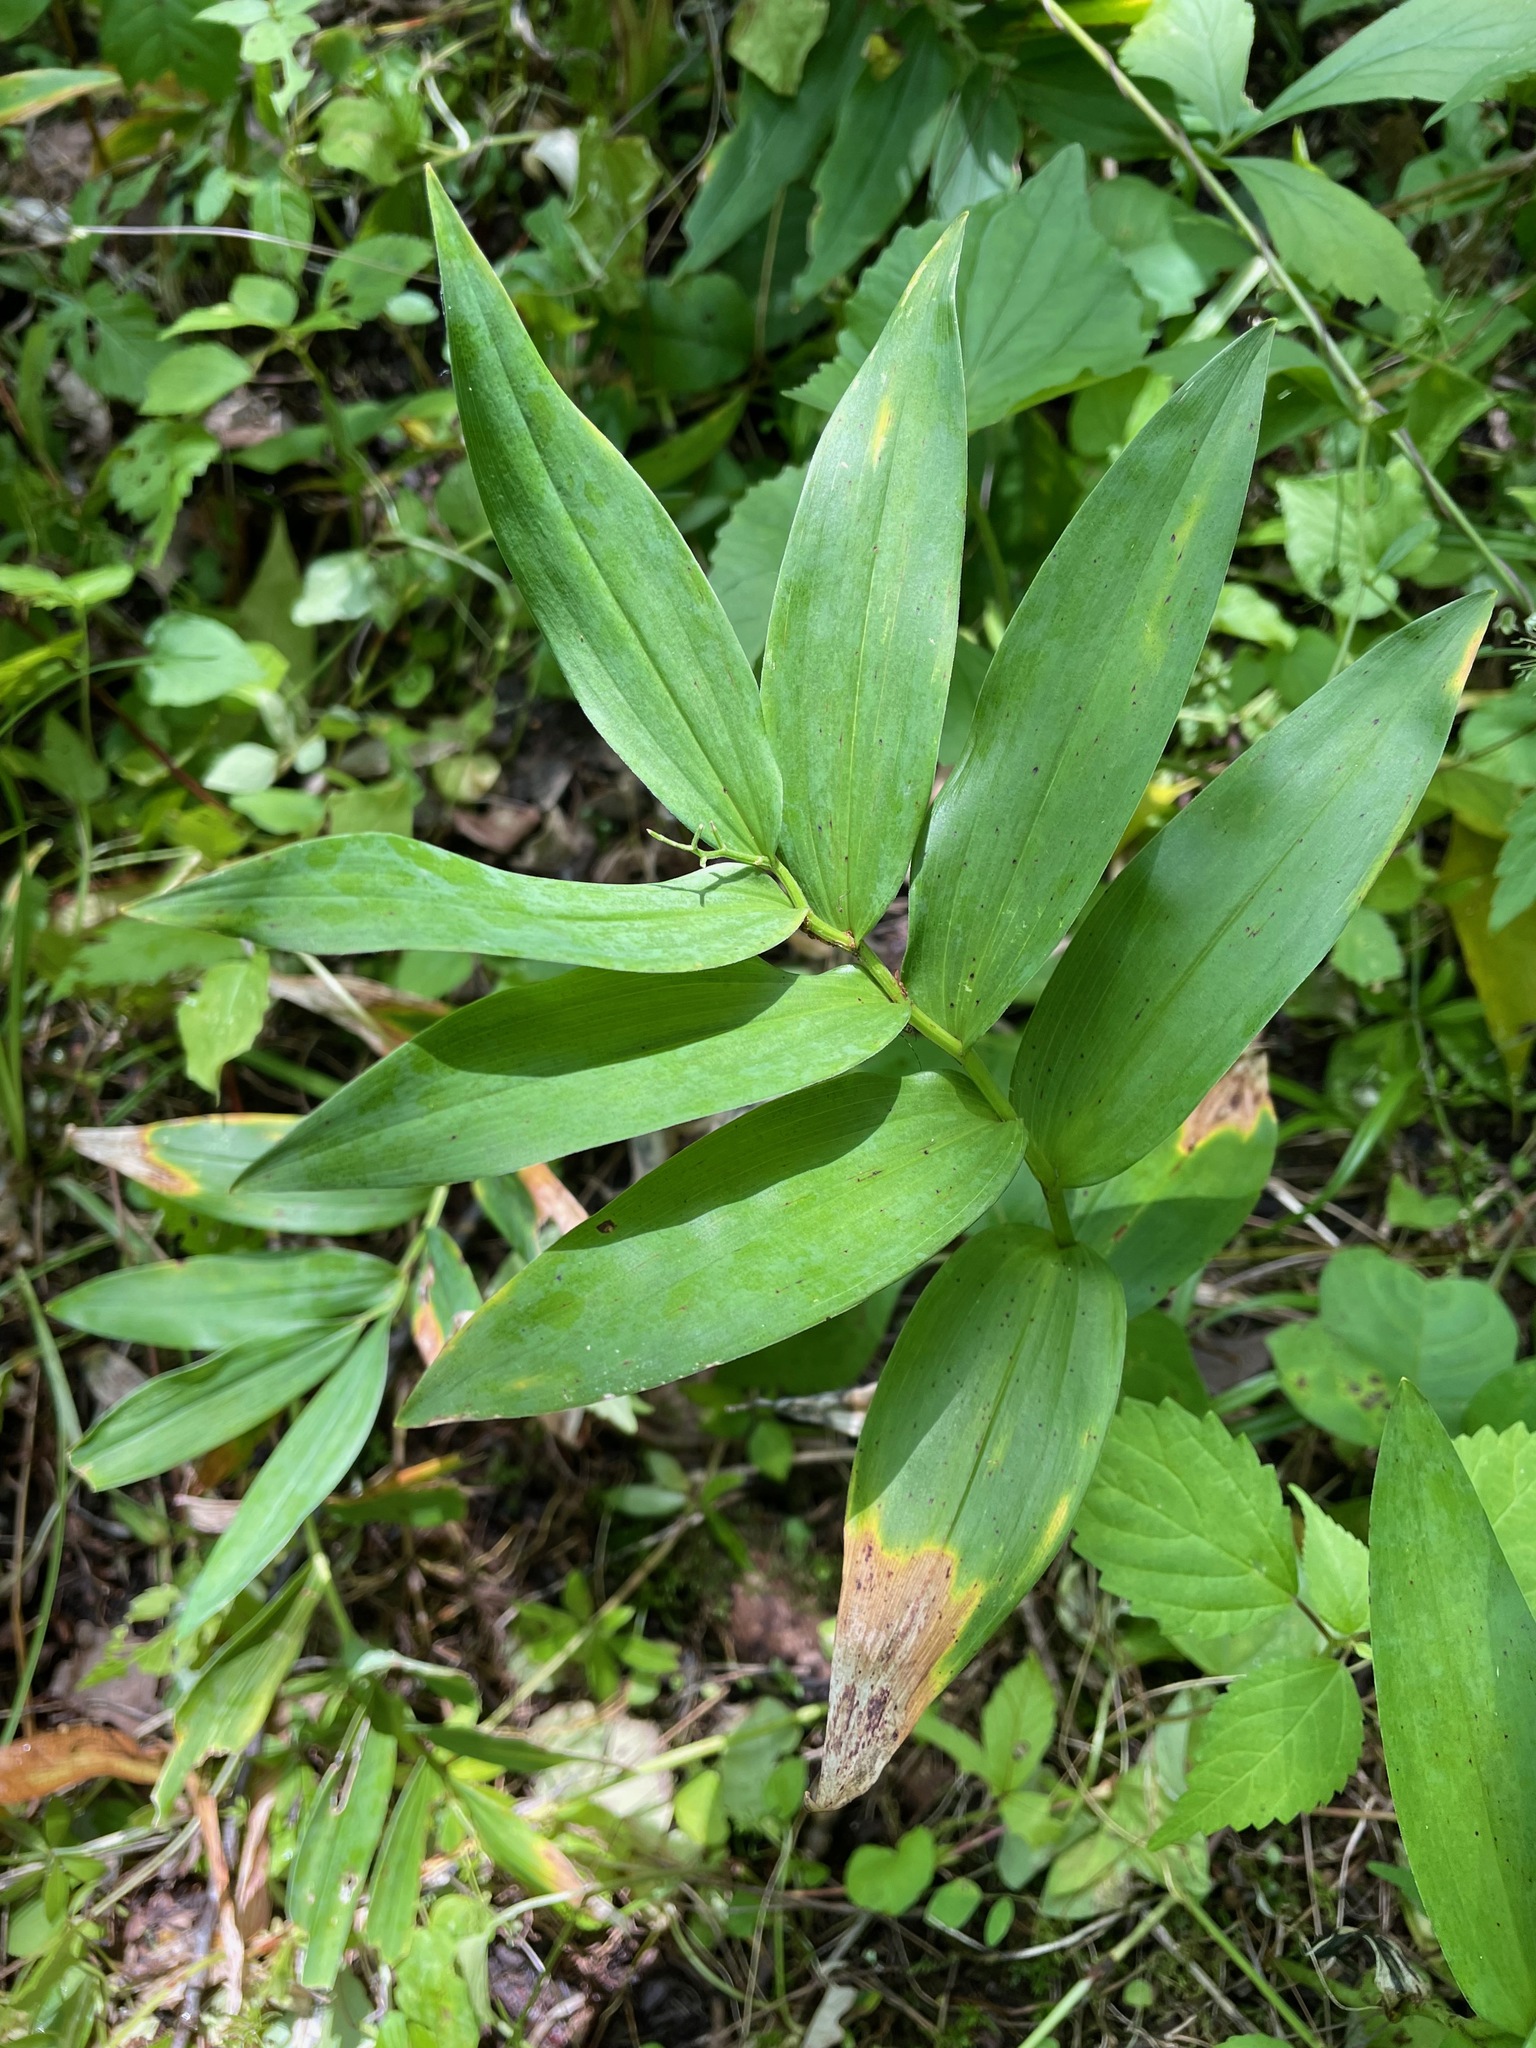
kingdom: Plantae
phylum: Tracheophyta
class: Liliopsida
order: Asparagales
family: Asparagaceae
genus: Maianthemum
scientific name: Maianthemum stellatum
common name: Little false solomon's seal
